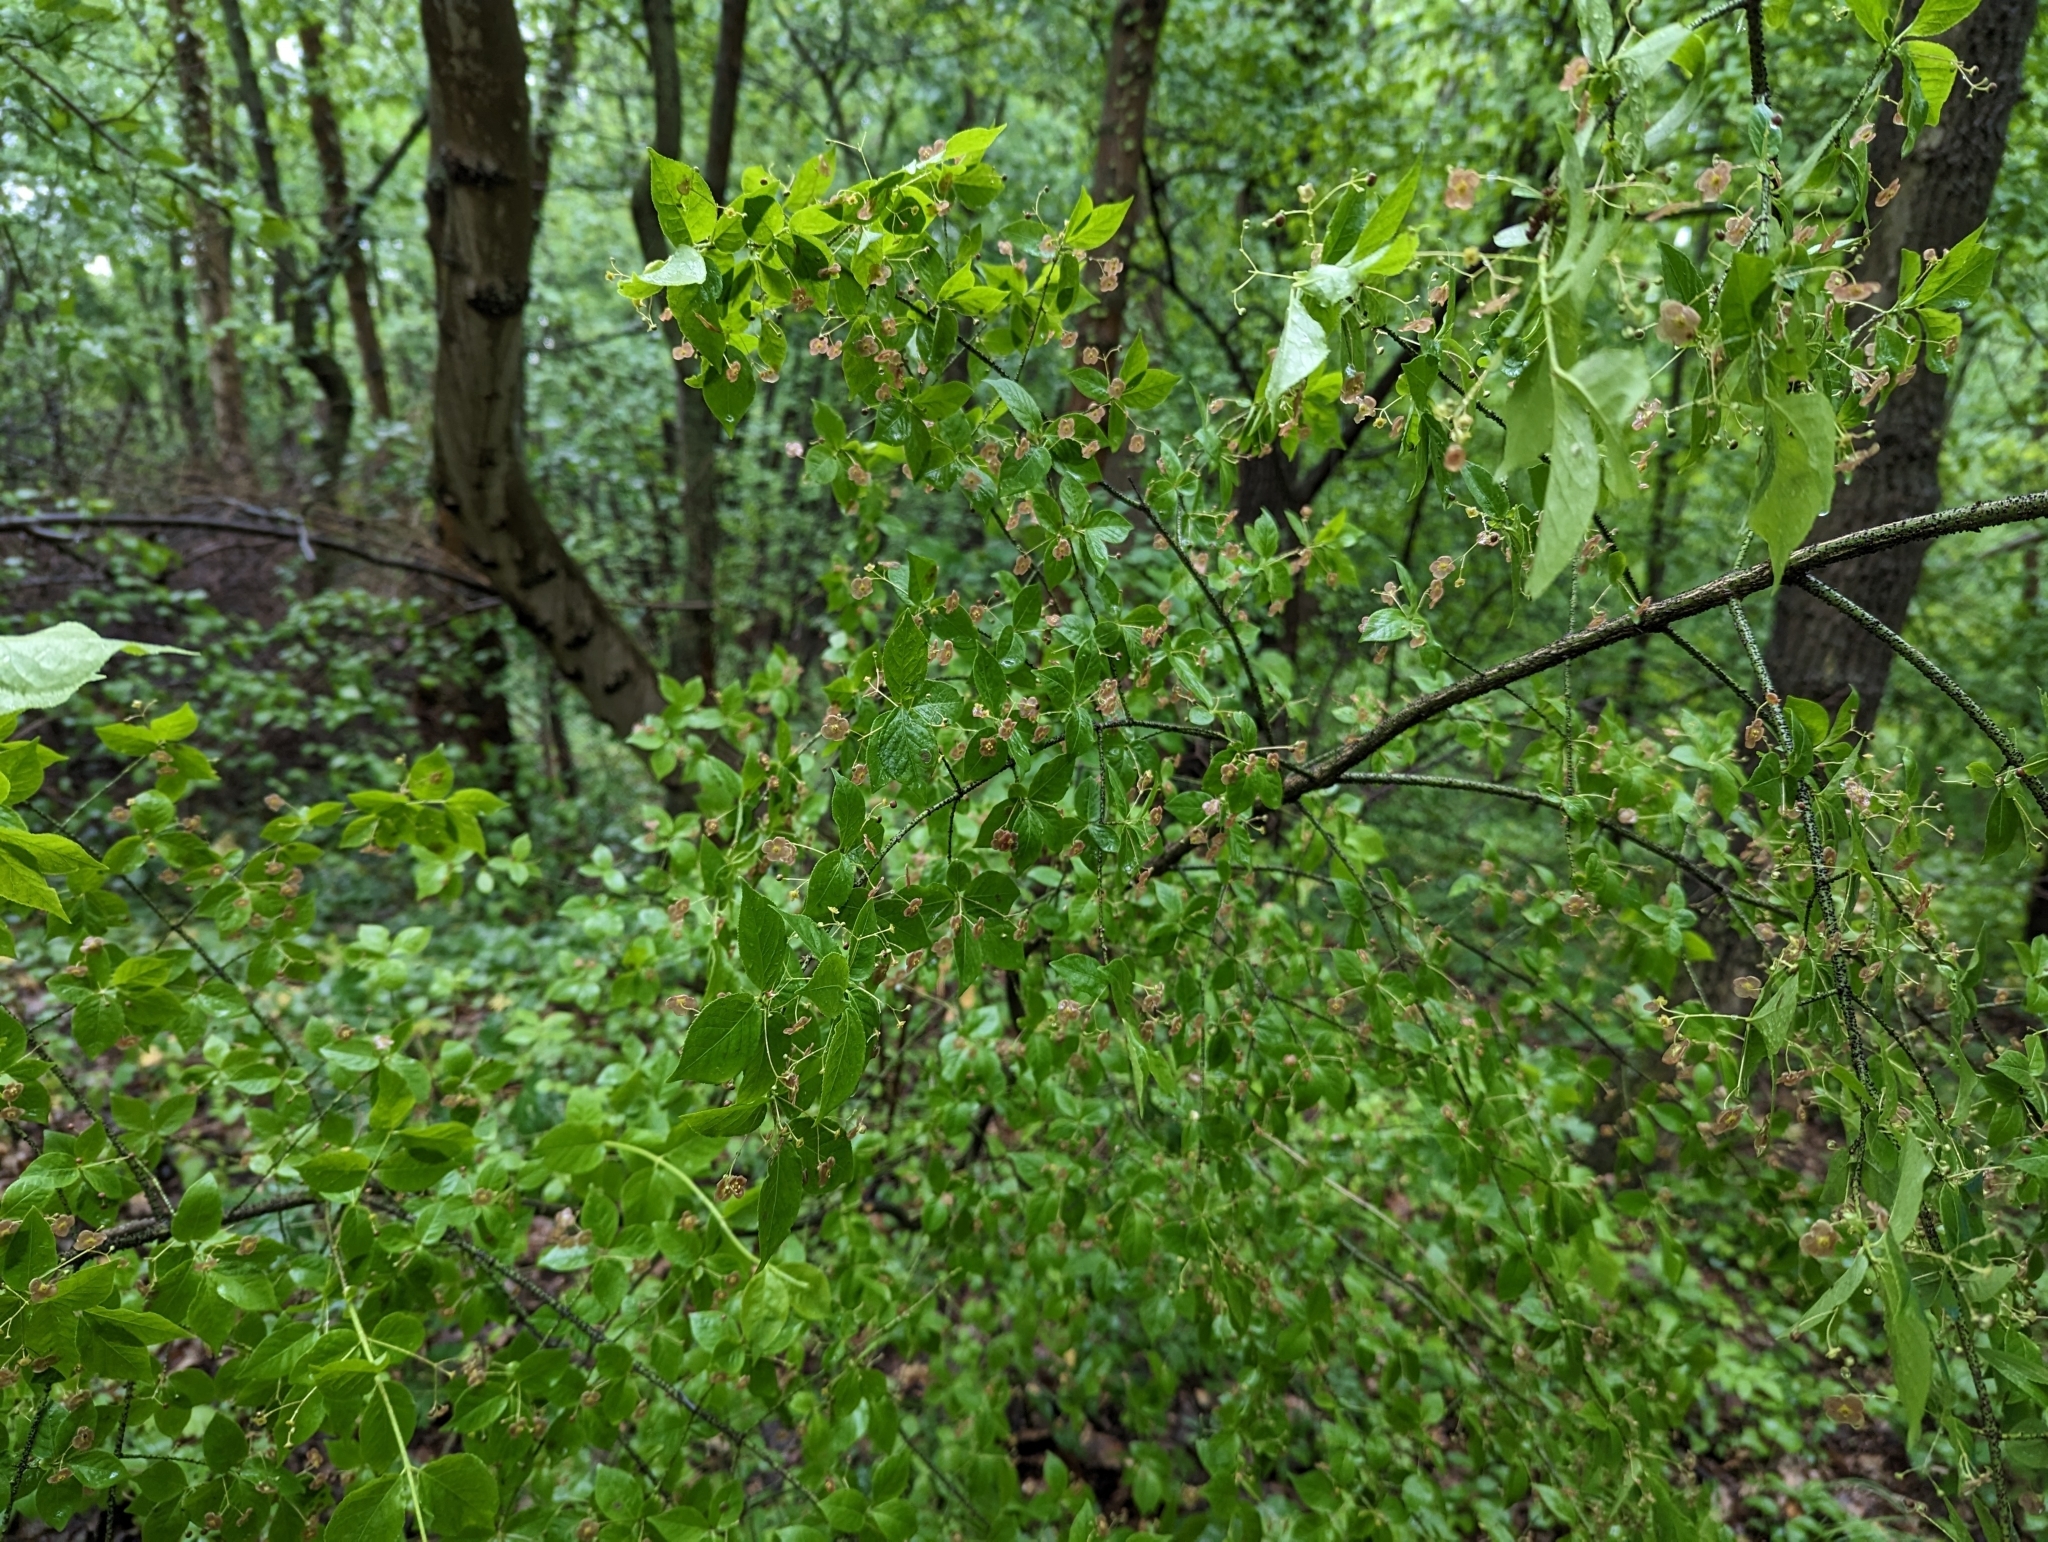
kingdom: Plantae
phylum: Tracheophyta
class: Magnoliopsida
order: Celastrales
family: Celastraceae
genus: Euonymus
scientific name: Euonymus verrucosus
